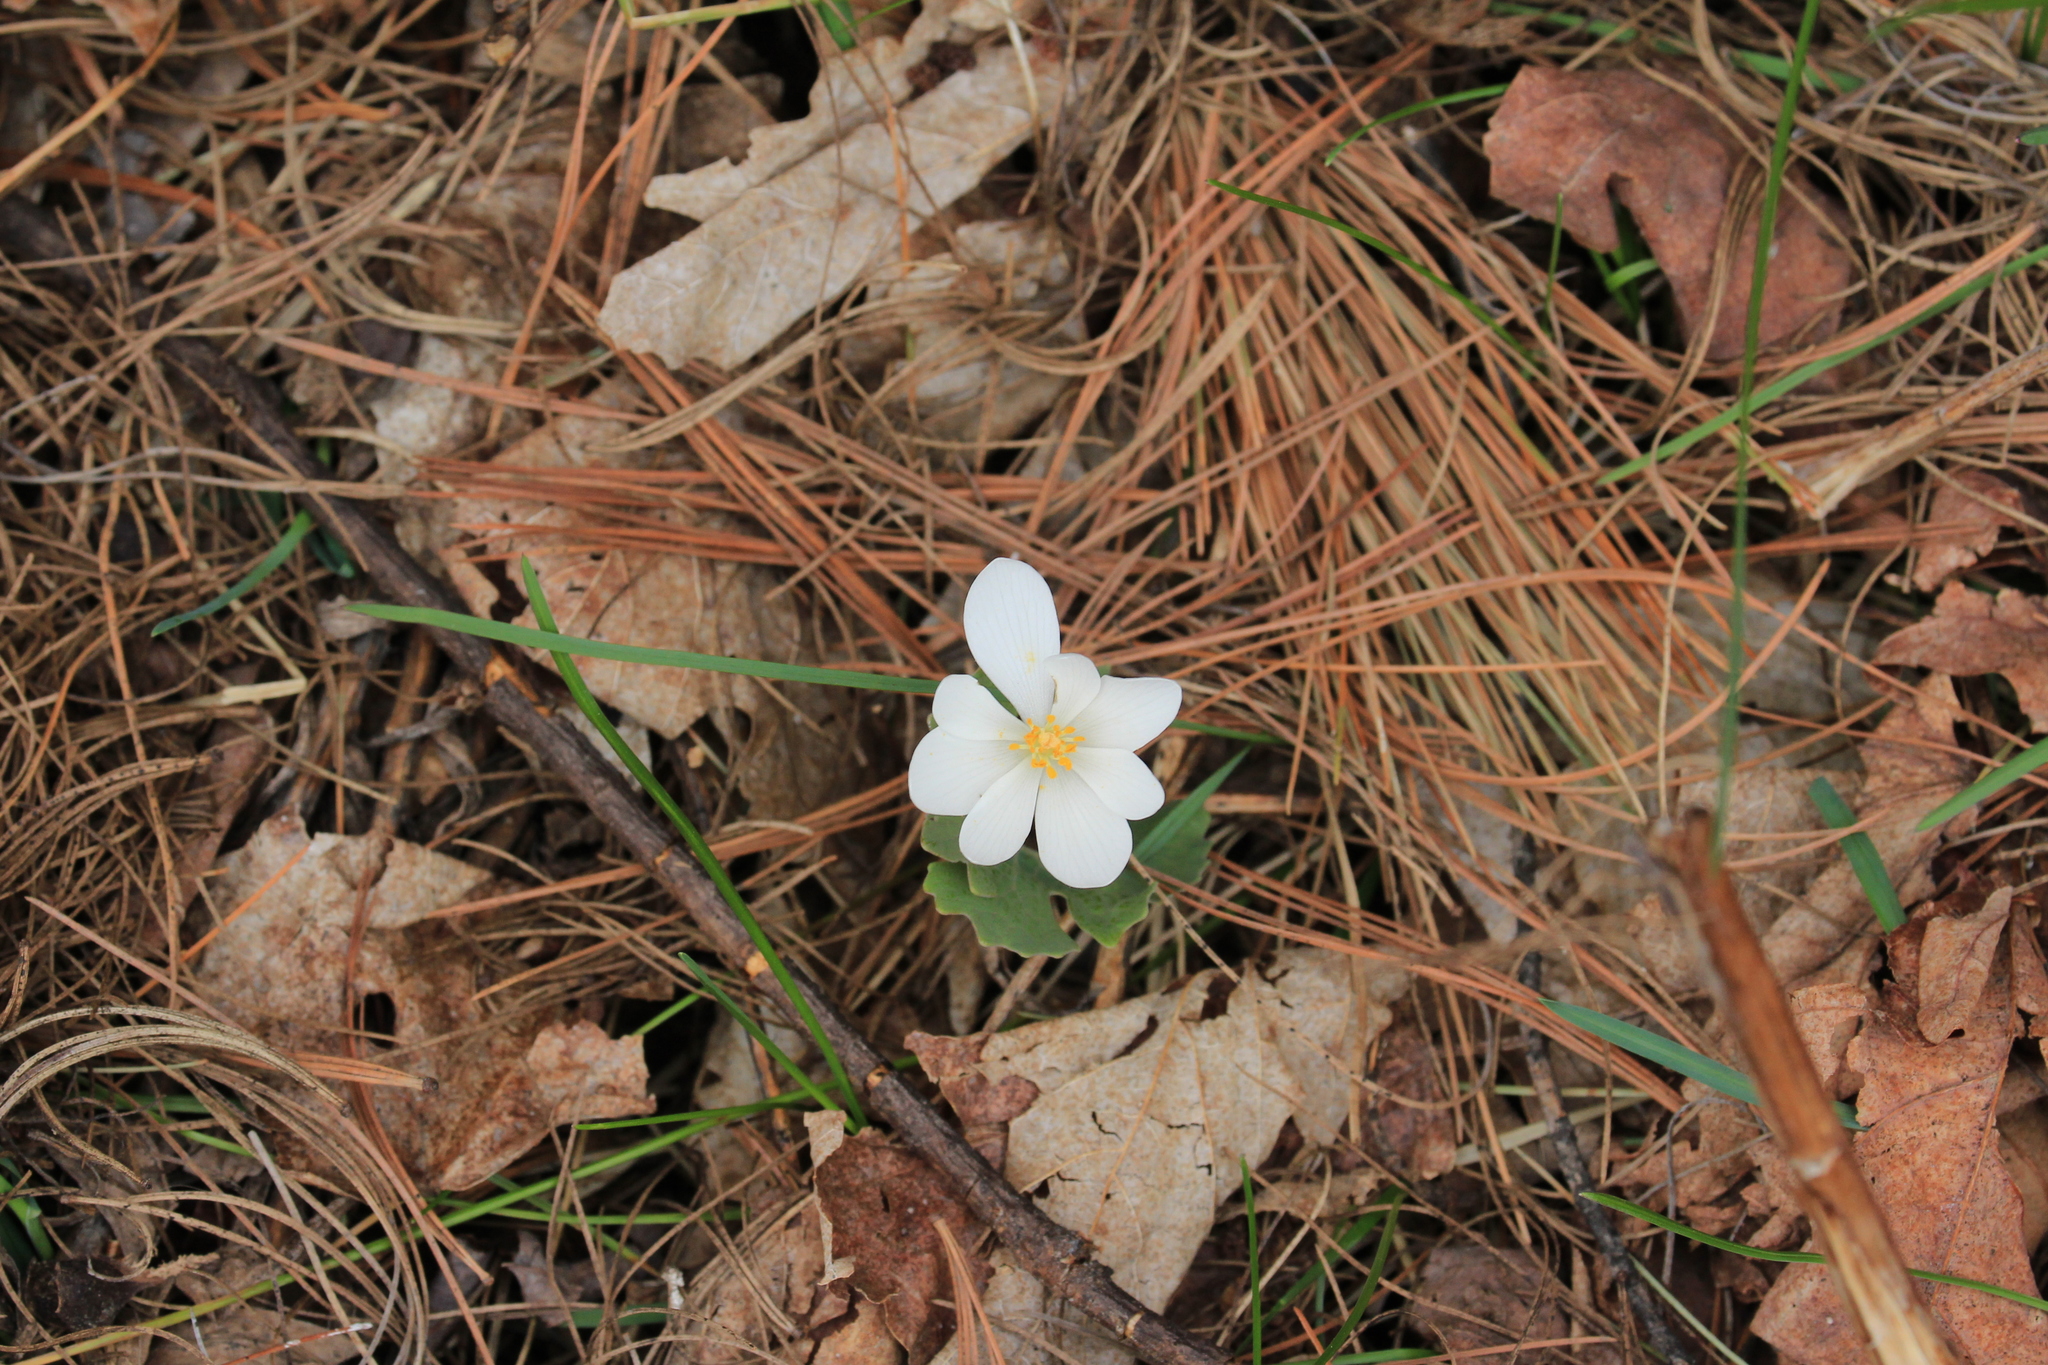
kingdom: Plantae
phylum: Tracheophyta
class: Magnoliopsida
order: Ranunculales
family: Papaveraceae
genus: Sanguinaria
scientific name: Sanguinaria canadensis
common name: Bloodroot
